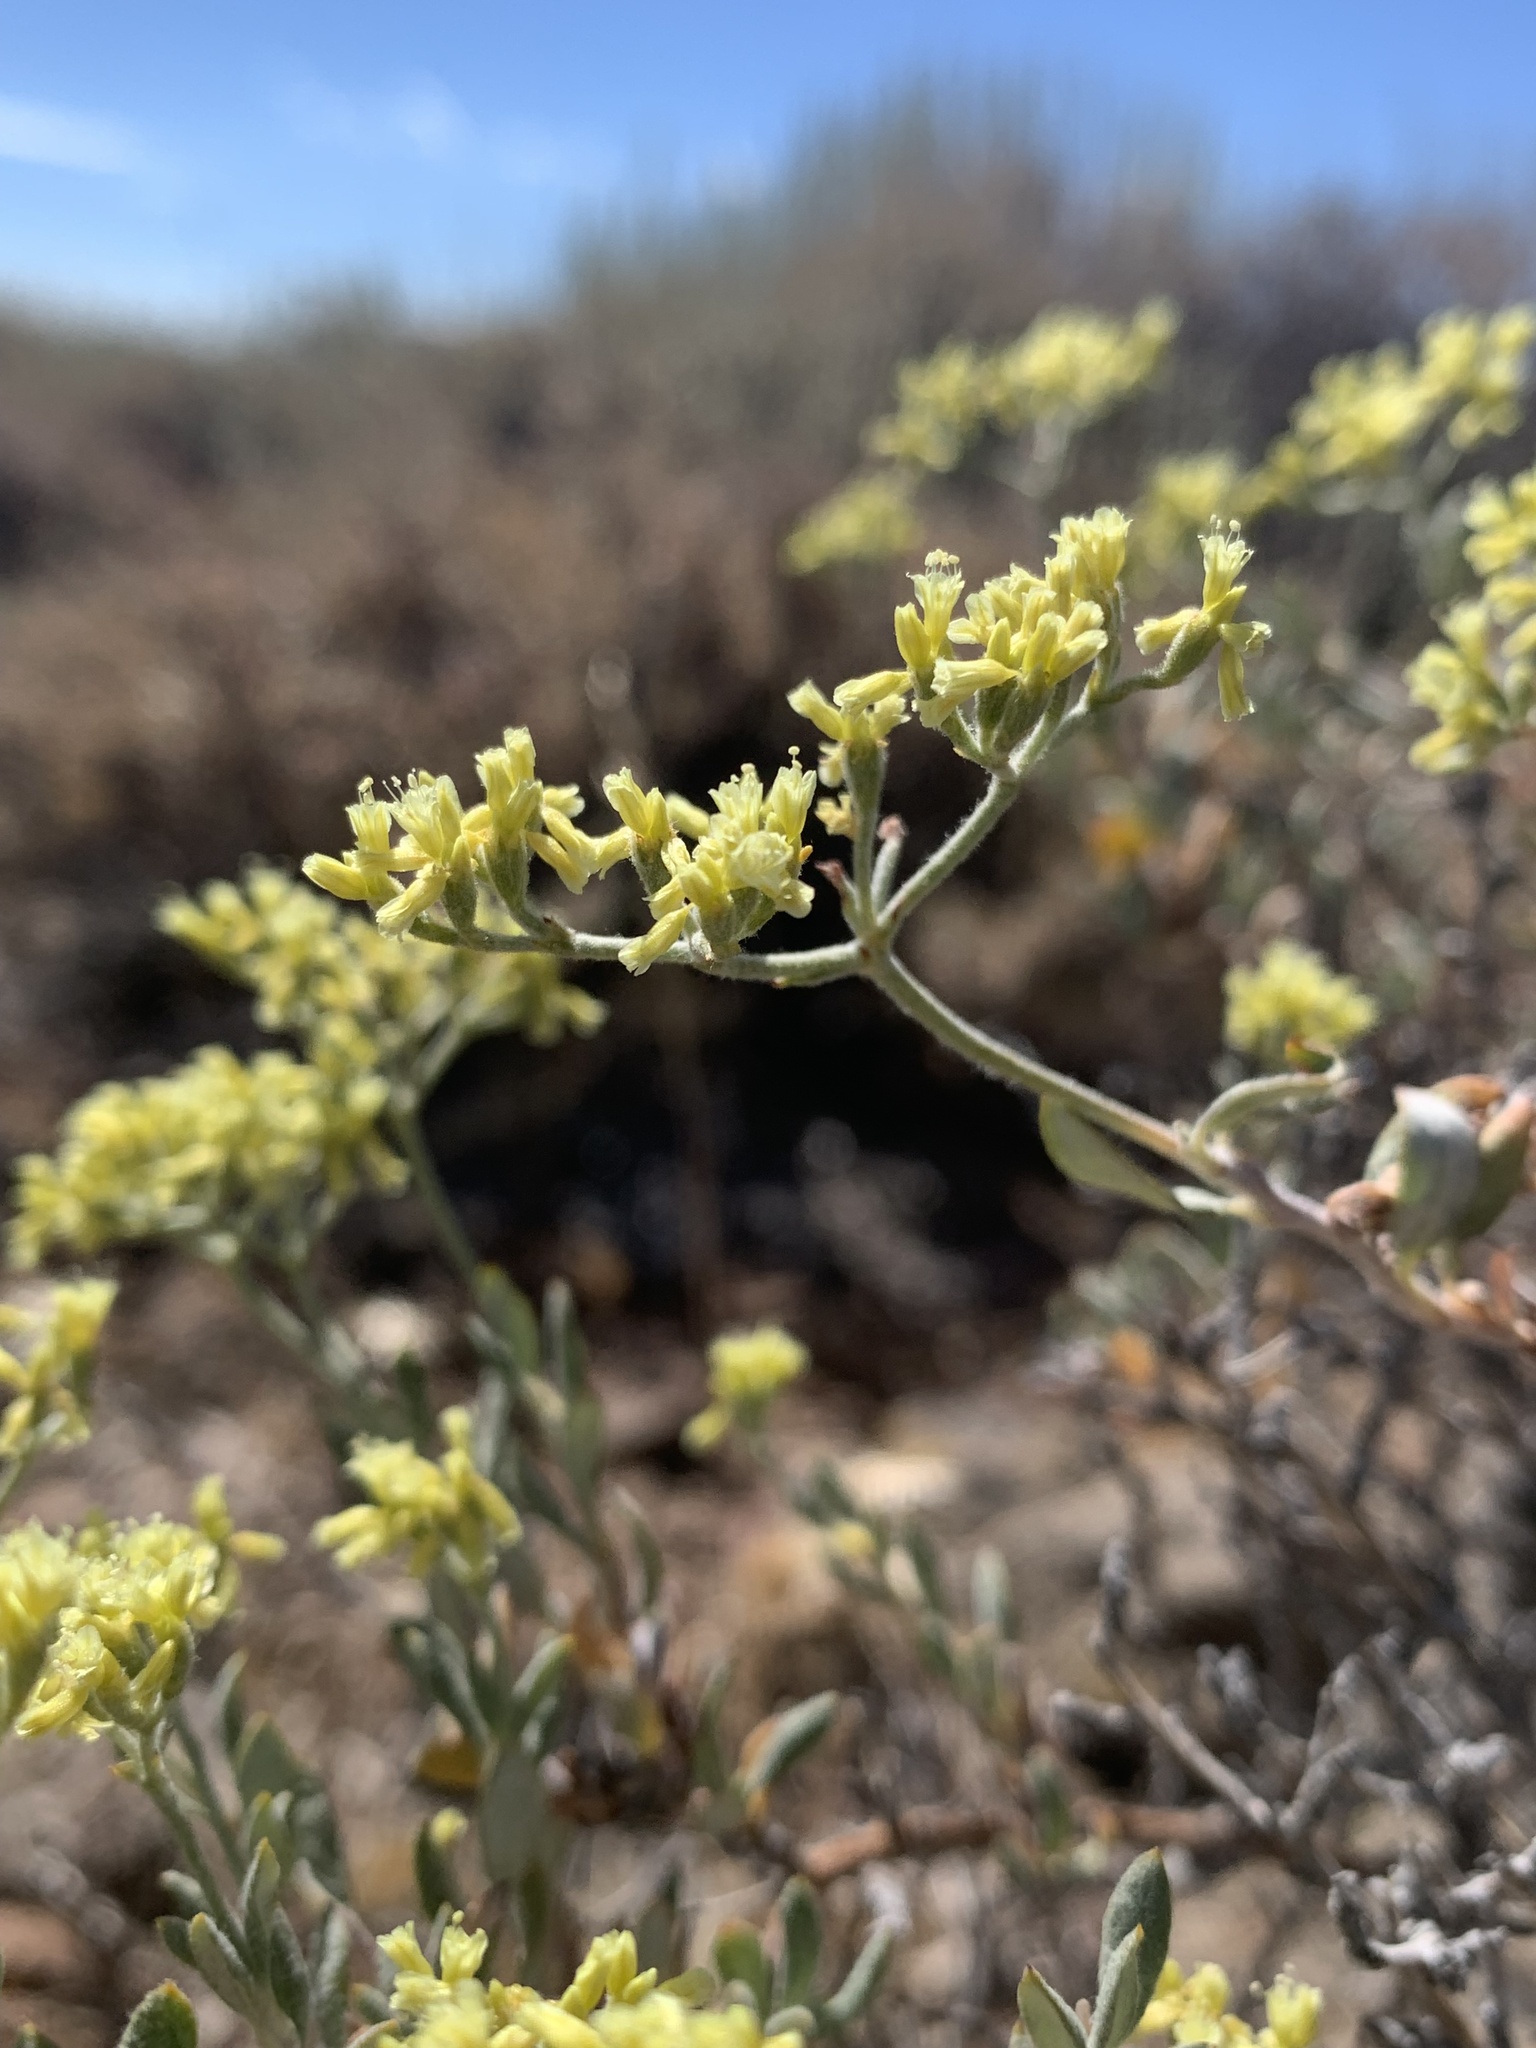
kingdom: Plantae
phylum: Tracheophyta
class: Magnoliopsida
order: Caryophyllales
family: Polygonaceae
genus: Eriogonum
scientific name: Eriogonum microtheca
